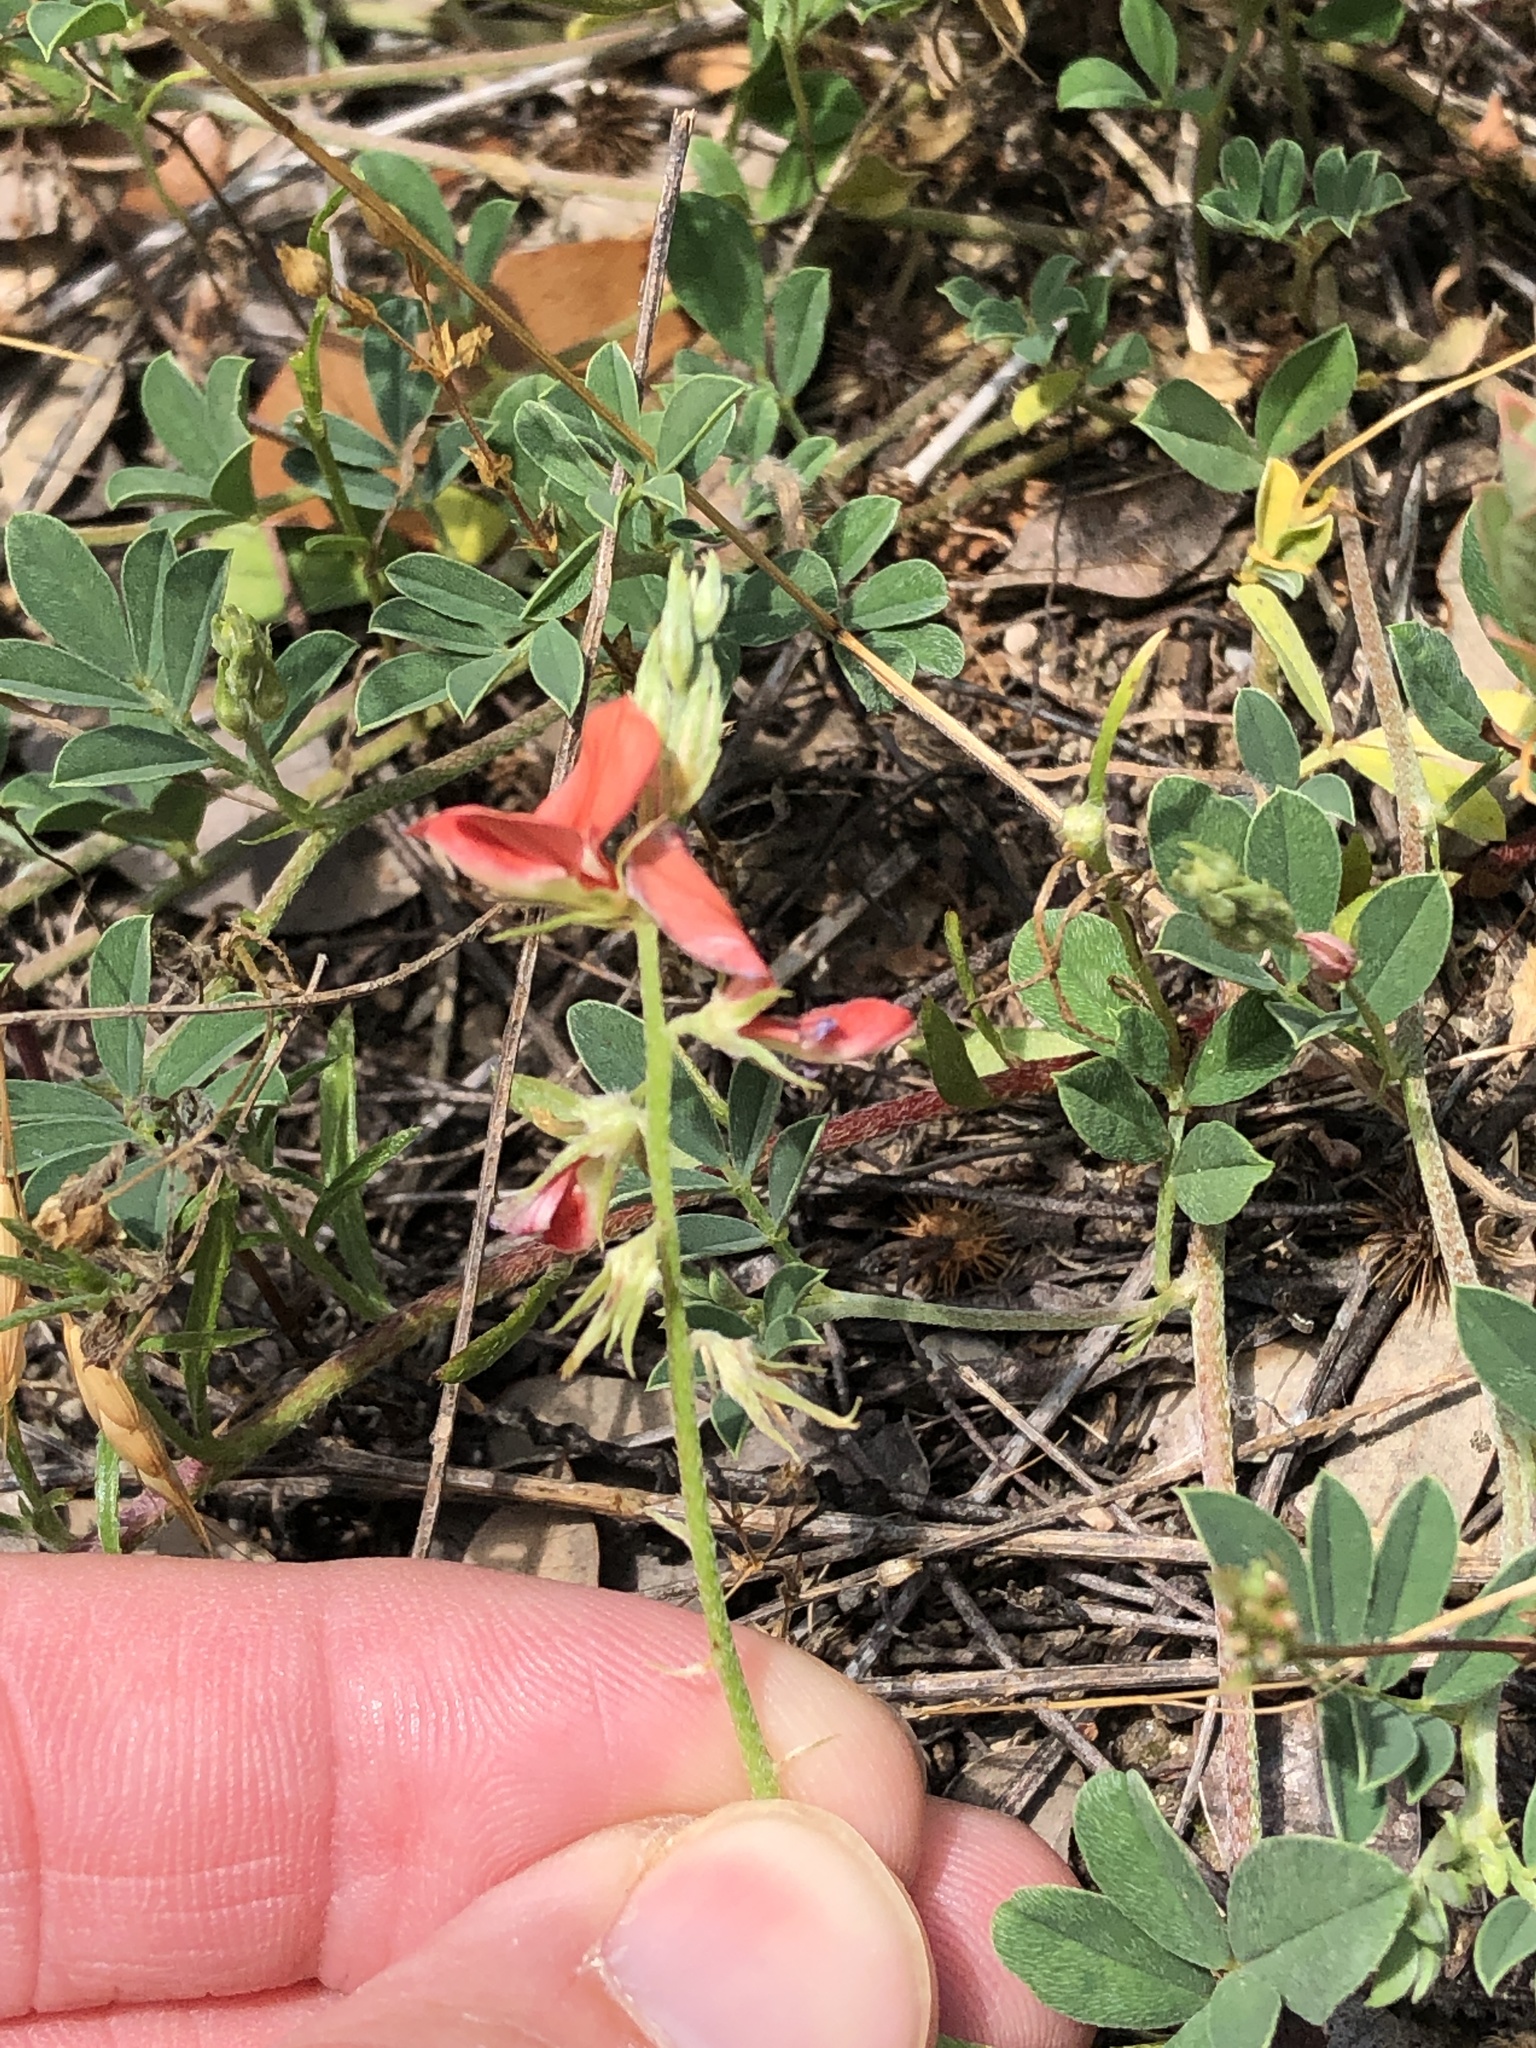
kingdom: Plantae
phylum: Tracheophyta
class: Magnoliopsida
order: Fabales
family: Fabaceae
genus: Indigofera
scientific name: Indigofera miniata
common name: Coast indigo
